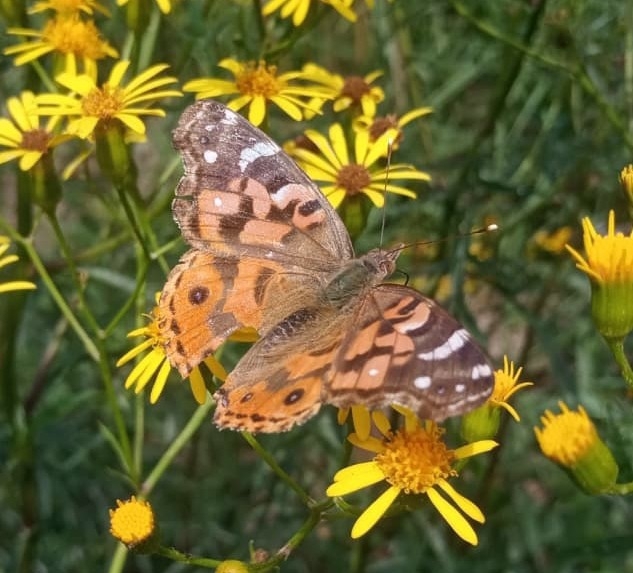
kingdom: Animalia
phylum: Arthropoda
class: Insecta
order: Lepidoptera
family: Nymphalidae
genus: Vanessa
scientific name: Vanessa braziliensis
